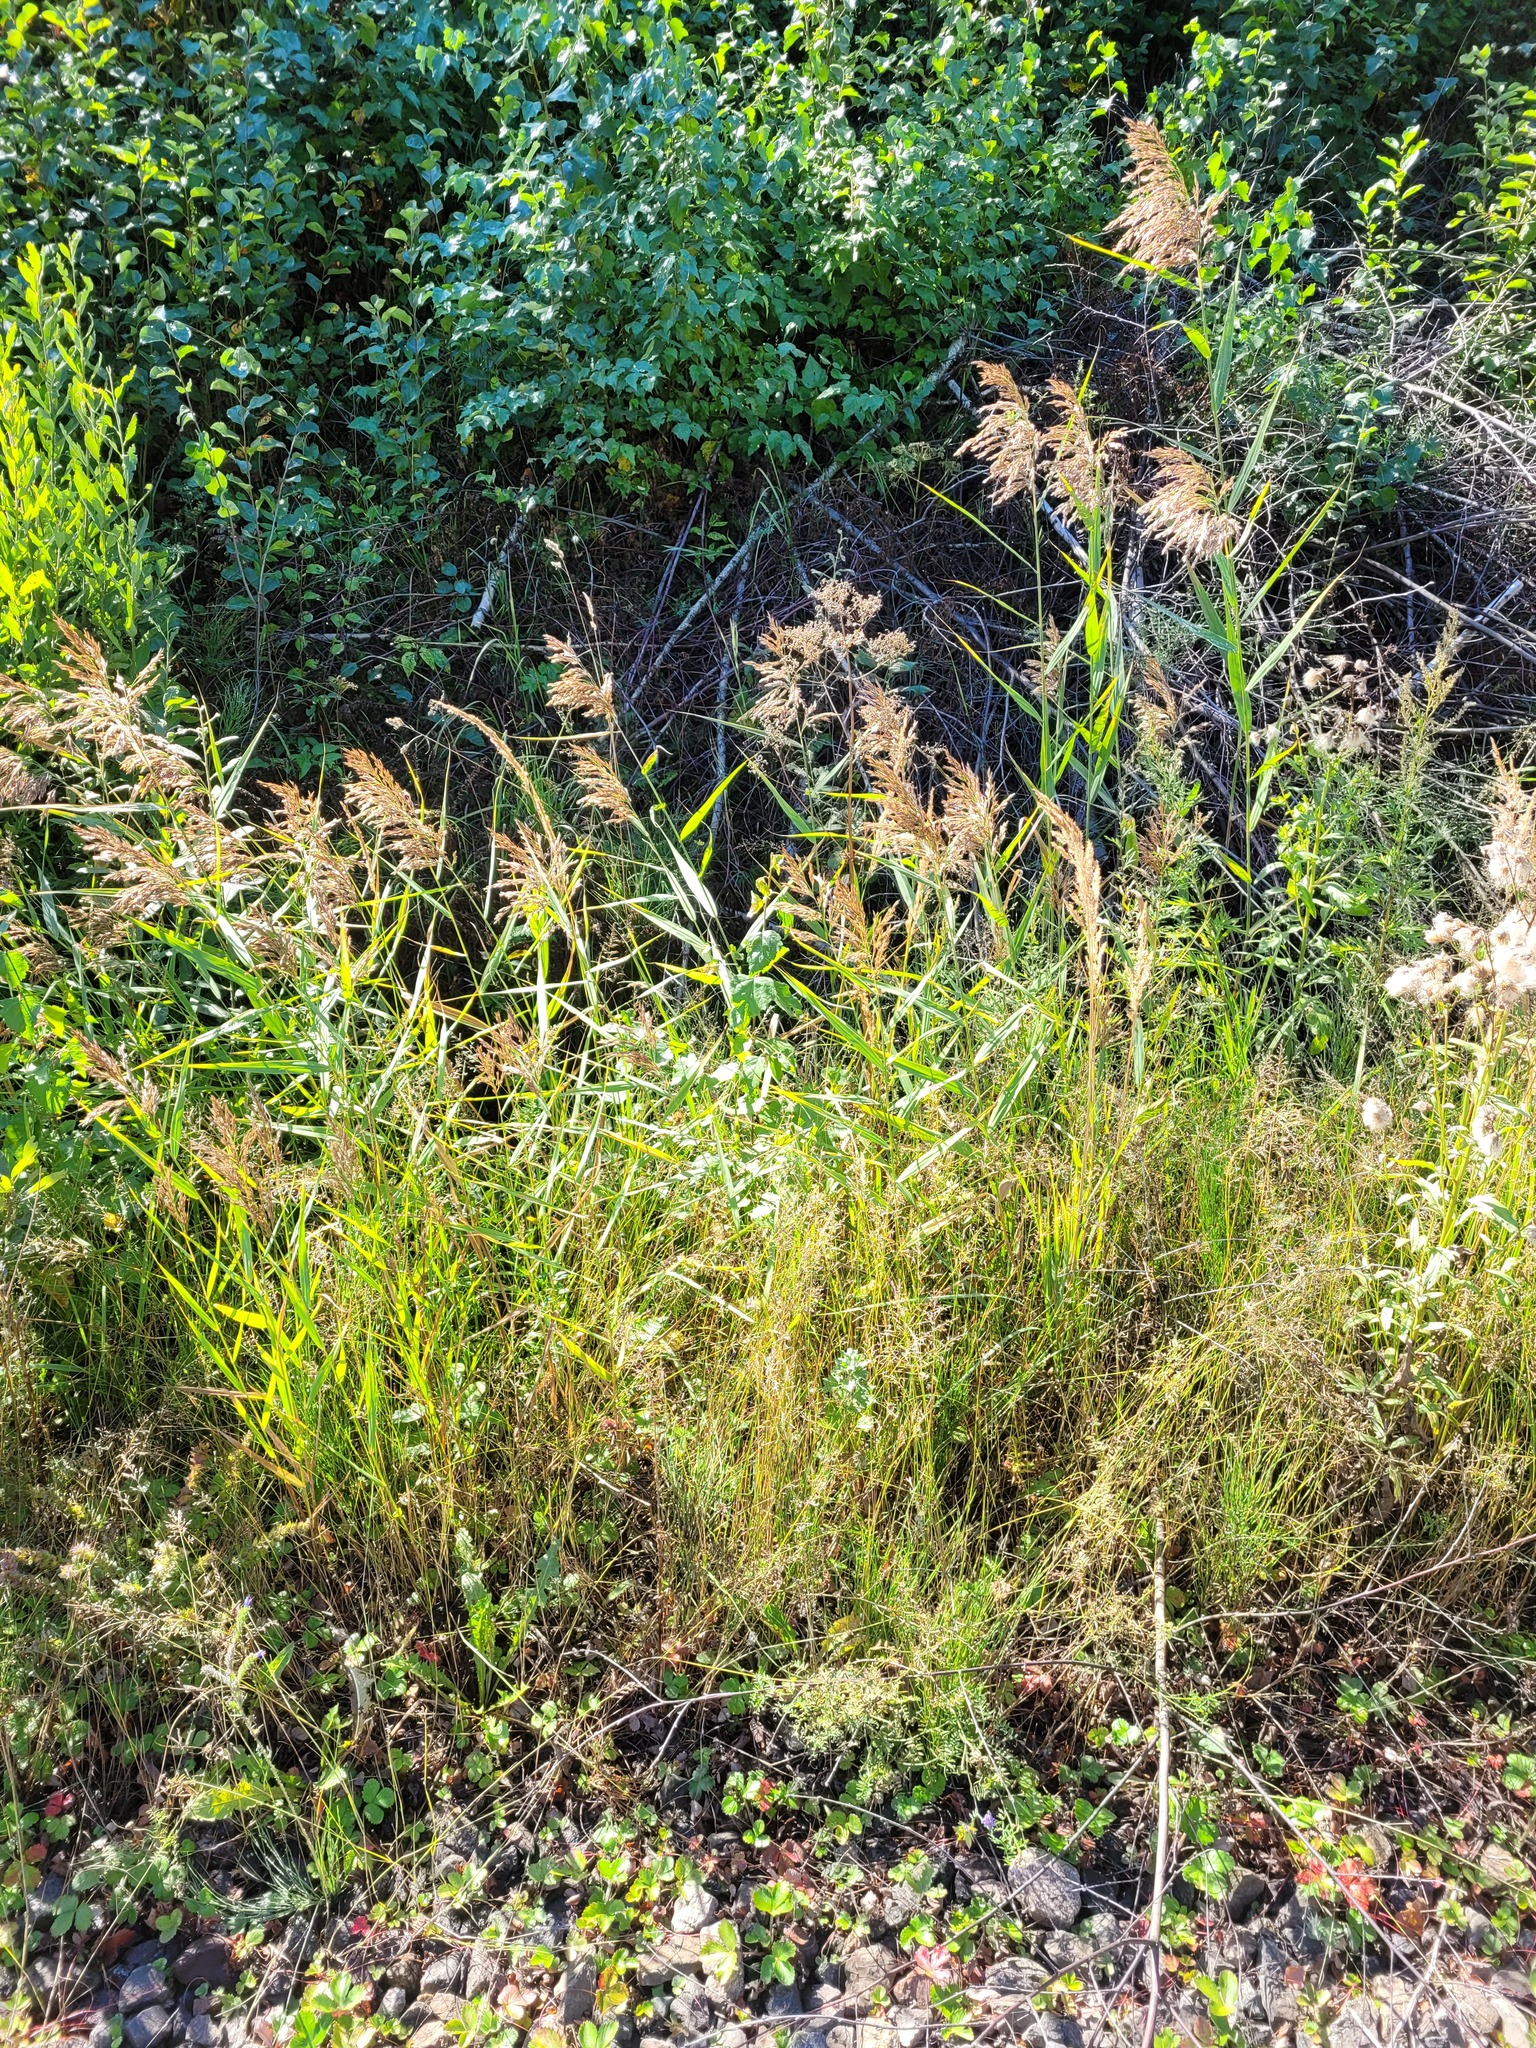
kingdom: Plantae
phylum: Tracheophyta
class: Liliopsida
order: Poales
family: Poaceae
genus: Phragmites
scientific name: Phragmites australis
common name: Common reed
